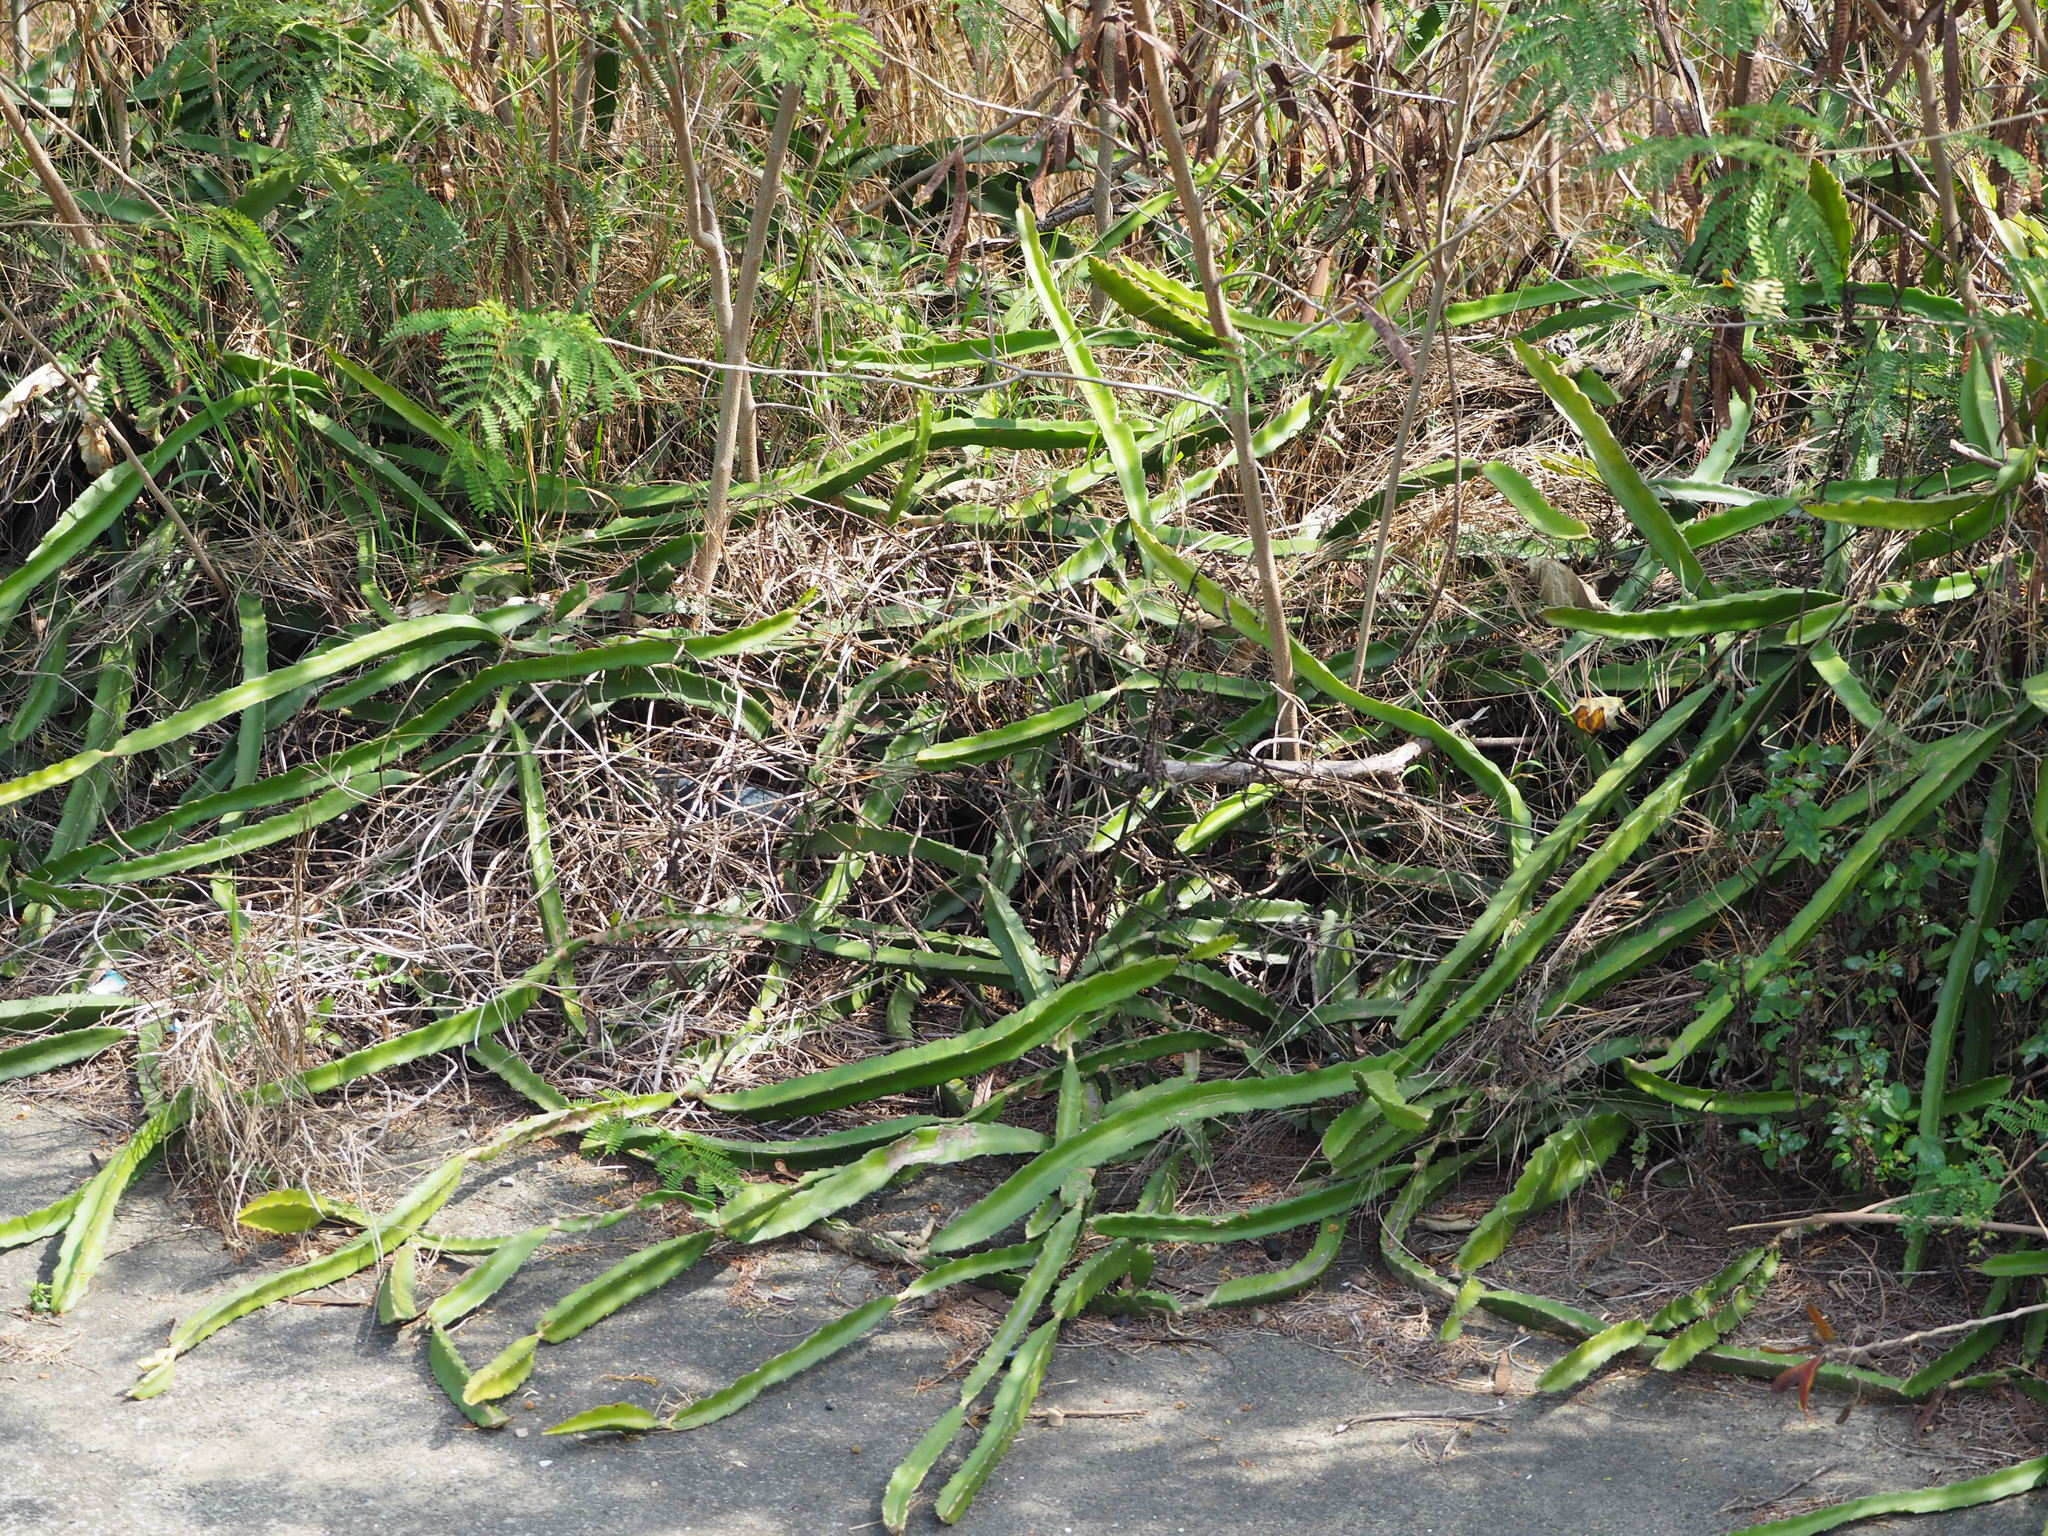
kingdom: Plantae
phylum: Tracheophyta
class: Magnoliopsida
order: Caryophyllales
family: Cactaceae
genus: Selenicereus
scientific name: Selenicereus undatus
